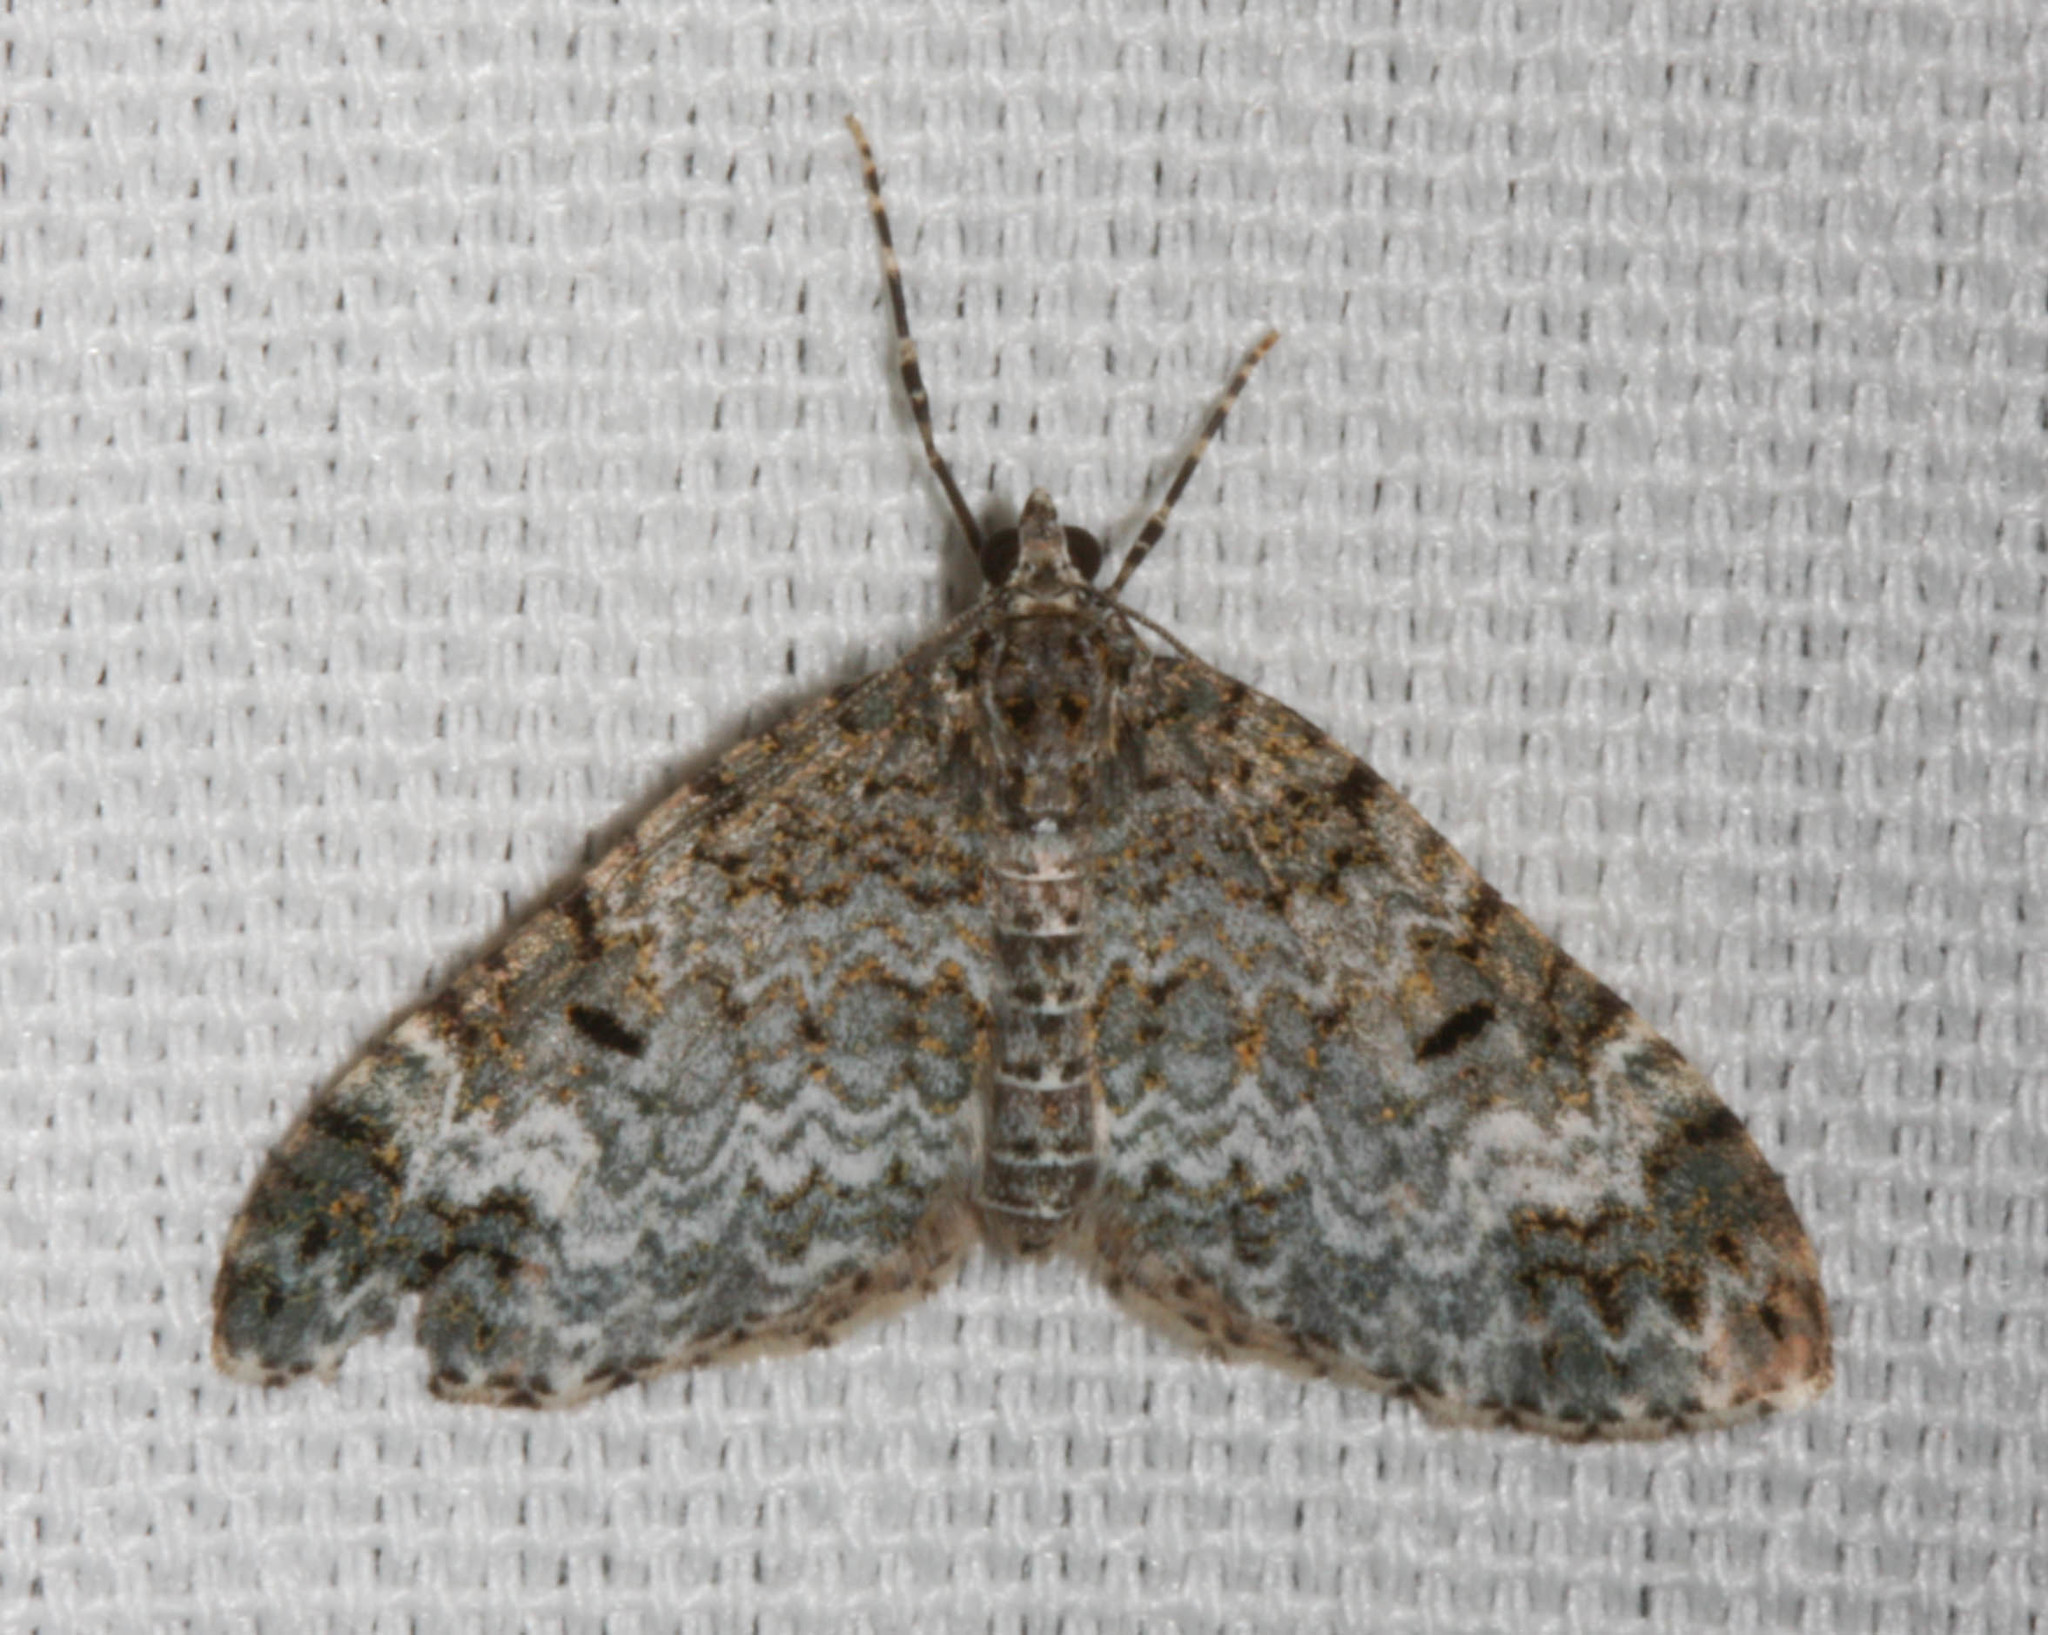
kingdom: Animalia
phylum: Arthropoda
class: Insecta
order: Lepidoptera
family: Geometridae
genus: Spargania
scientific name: Spargania magnoliata
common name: Double-banded carpet
